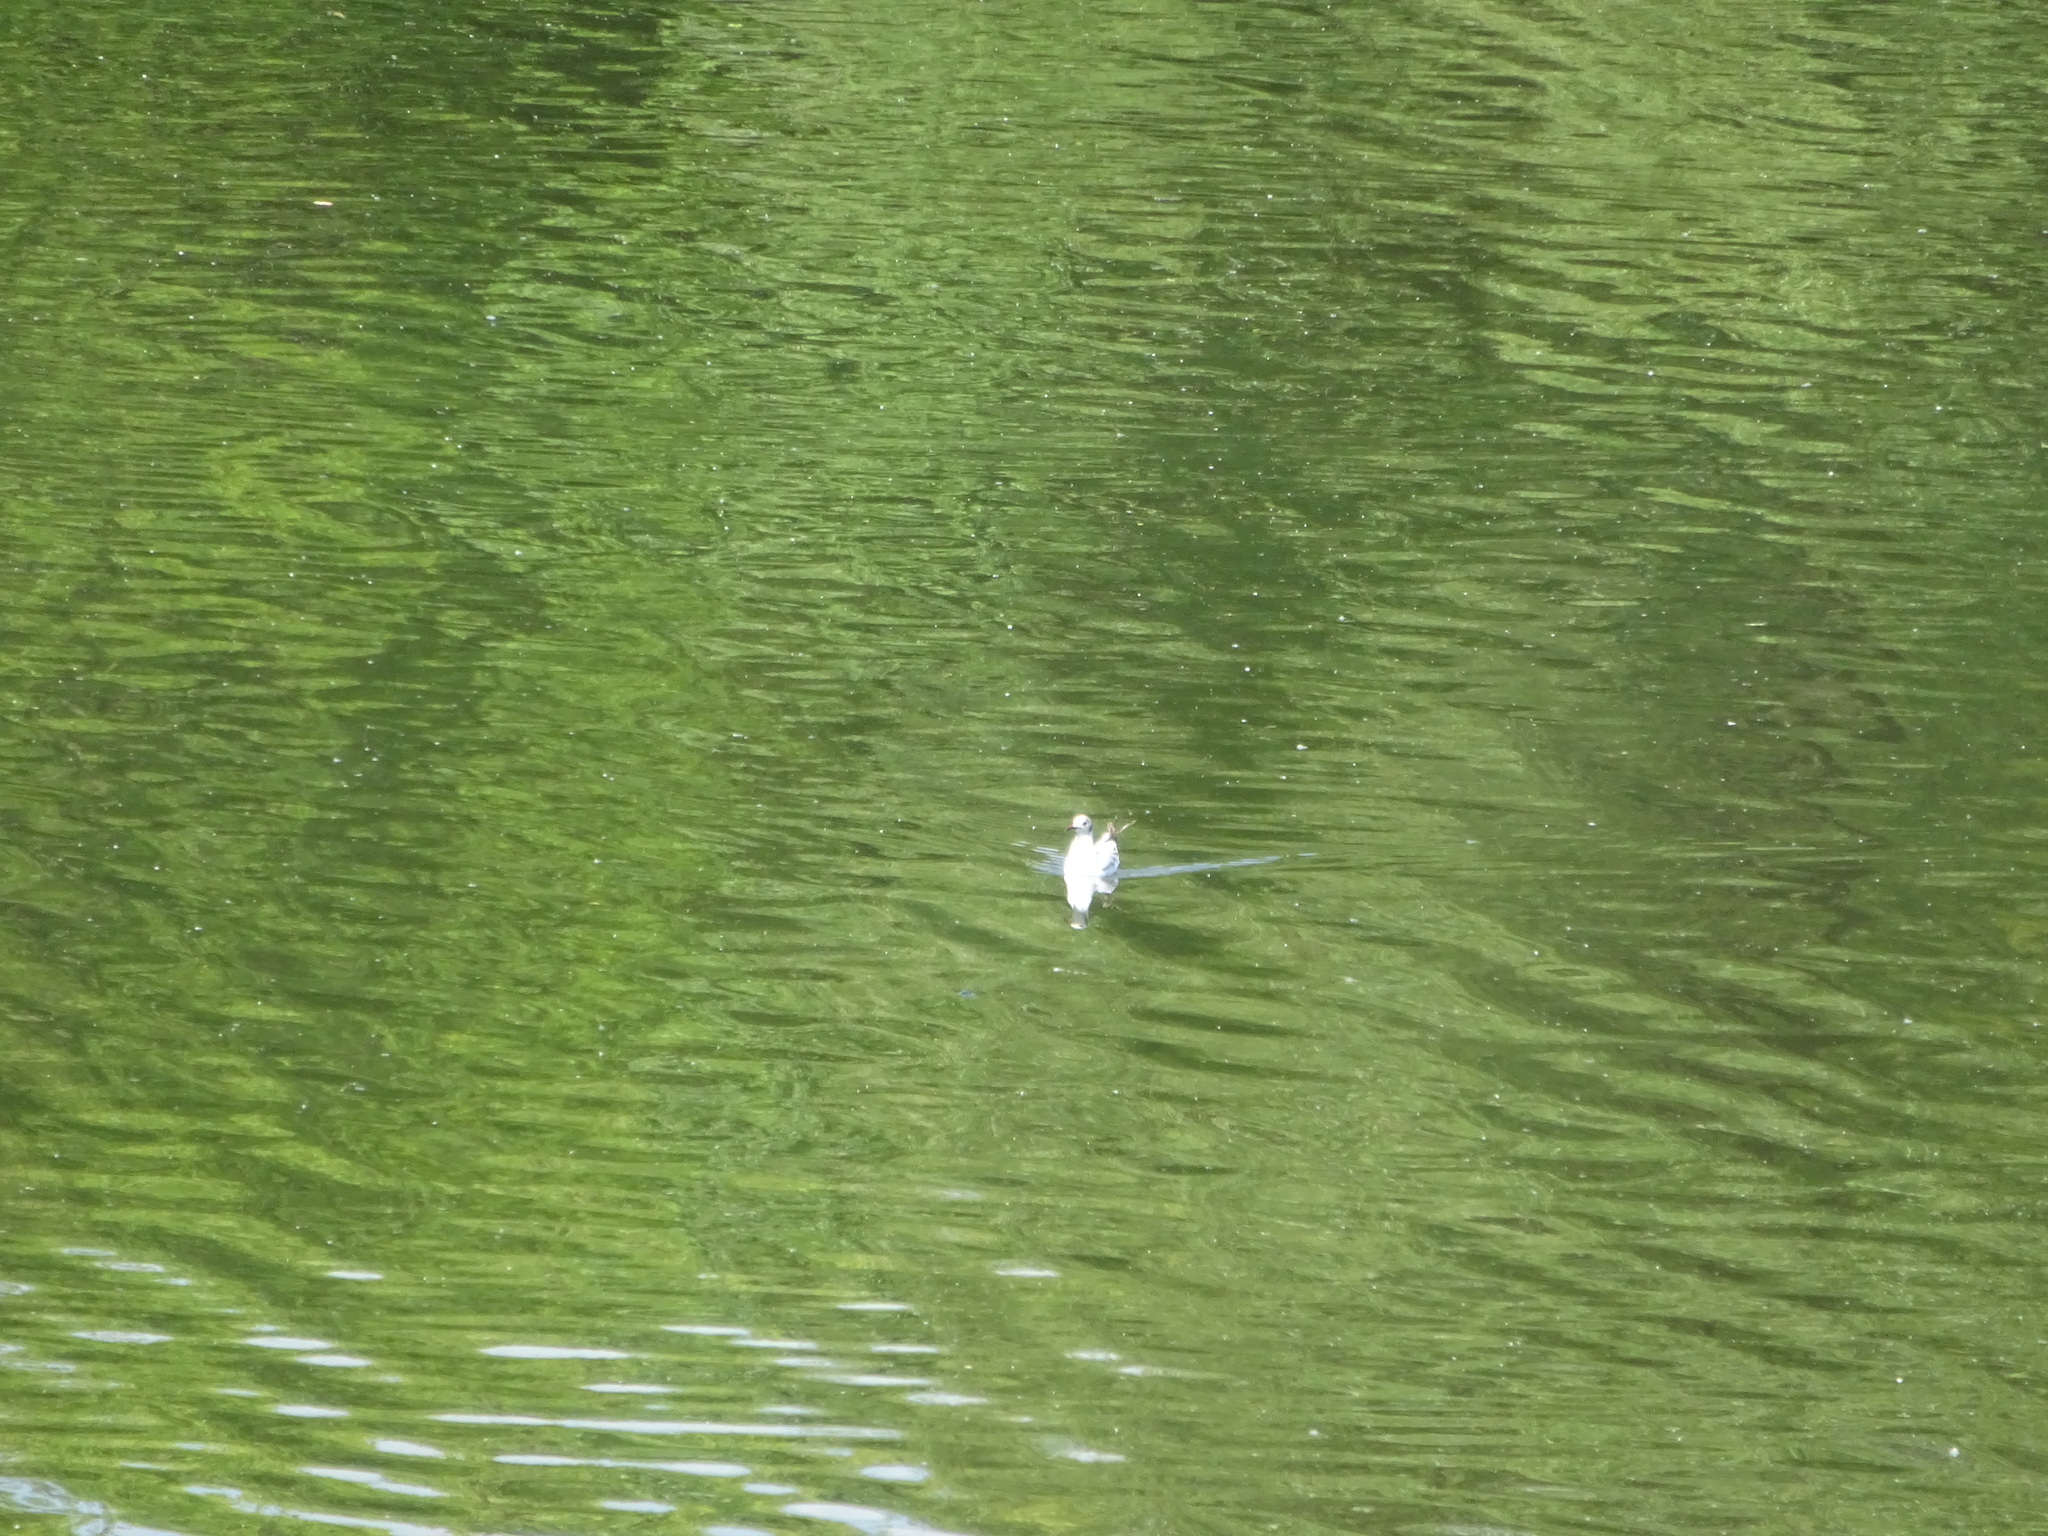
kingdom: Animalia
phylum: Chordata
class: Aves
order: Charadriiformes
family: Laridae
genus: Chroicocephalus
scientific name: Chroicocephalus ridibundus
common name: Black-headed gull
